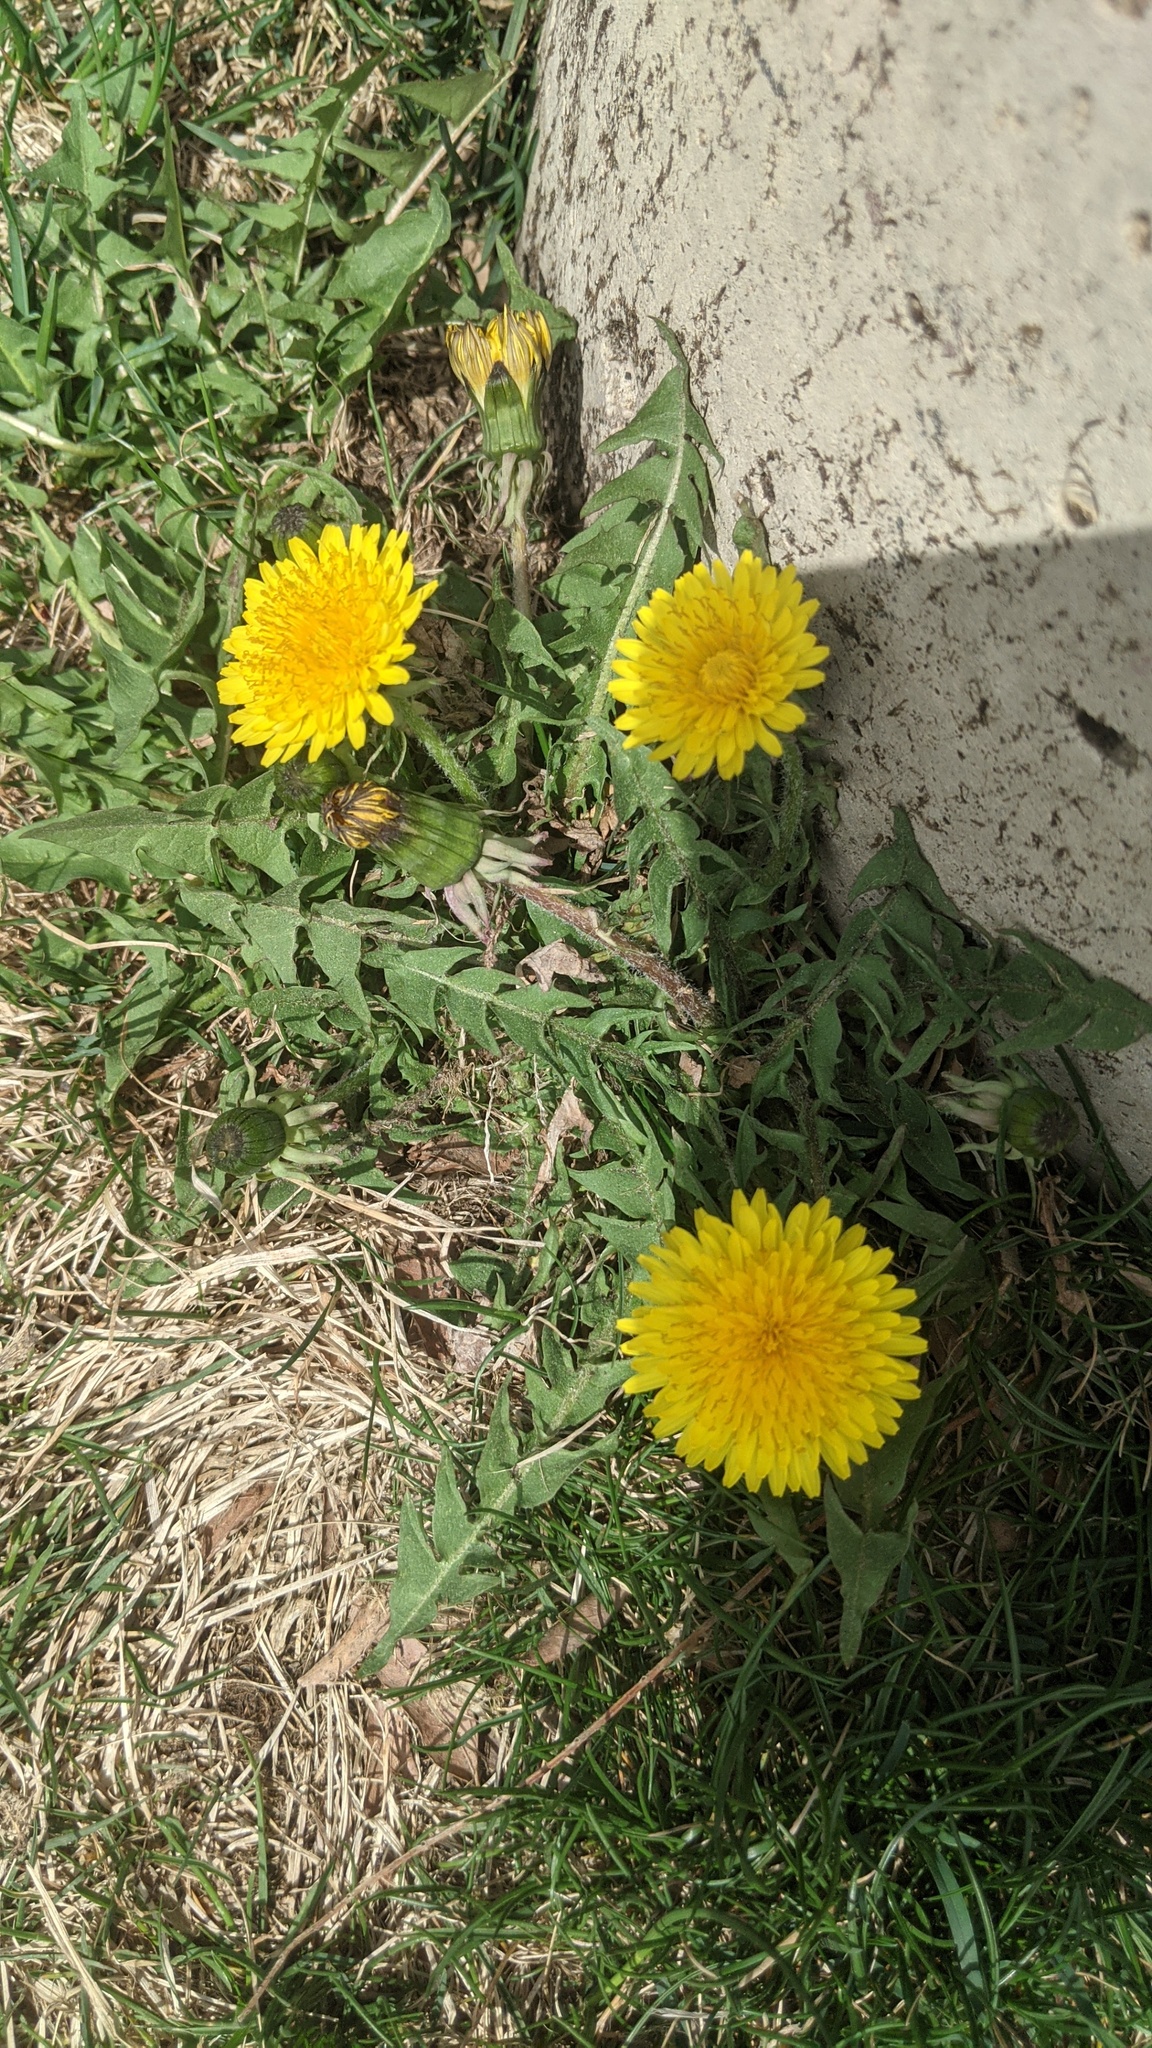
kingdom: Plantae
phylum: Tracheophyta
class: Magnoliopsida
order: Asterales
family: Asteraceae
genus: Taraxacum
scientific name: Taraxacum officinale
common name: Common dandelion
